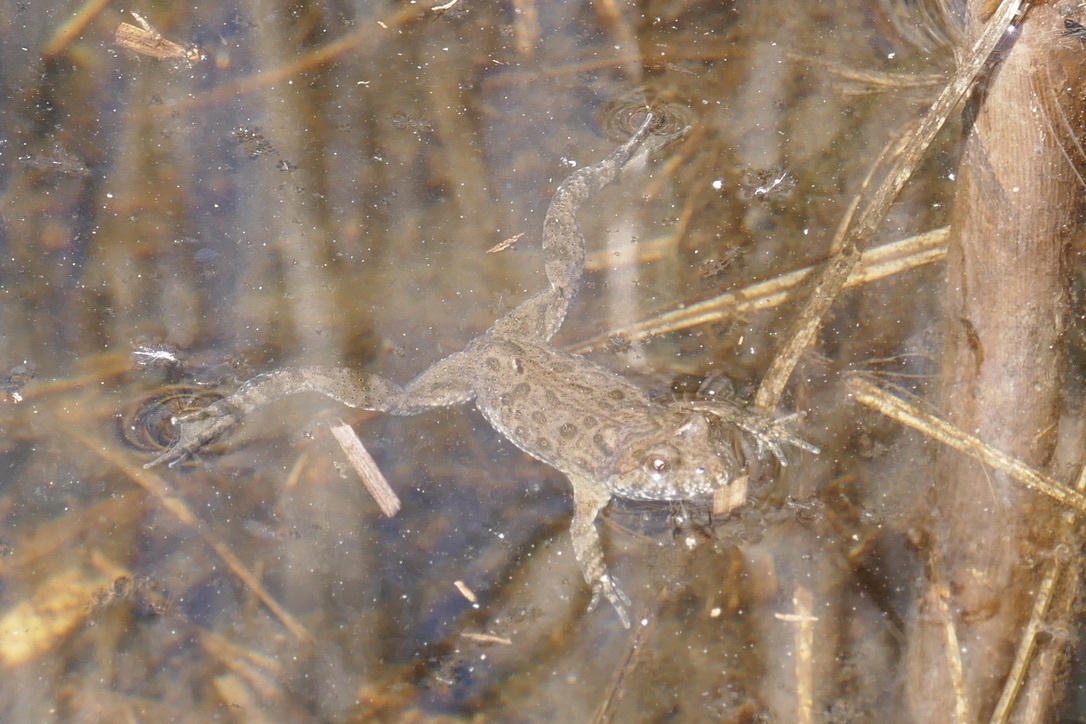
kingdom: Animalia
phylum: Chordata
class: Amphibia
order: Anura
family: Bombinatoridae
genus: Bombina
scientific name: Bombina bombina
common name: Fire-bellied toad
